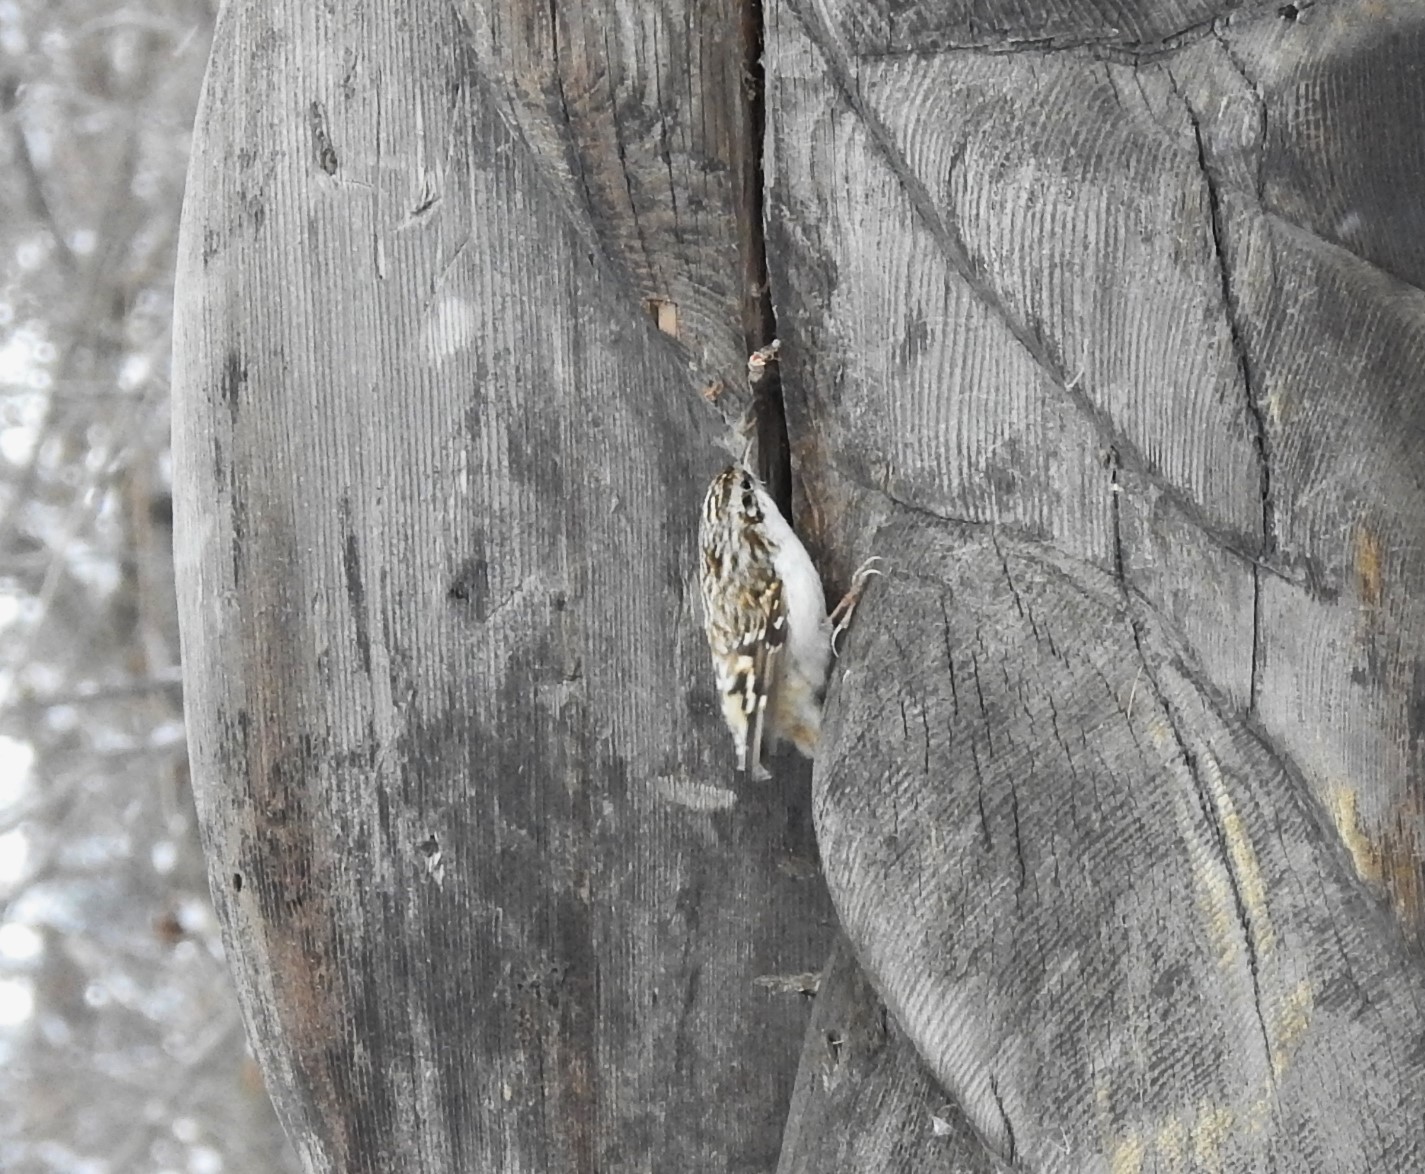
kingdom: Animalia
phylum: Chordata
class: Aves
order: Passeriformes
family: Certhiidae
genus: Certhia
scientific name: Certhia familiaris
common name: Eurasian treecreeper
